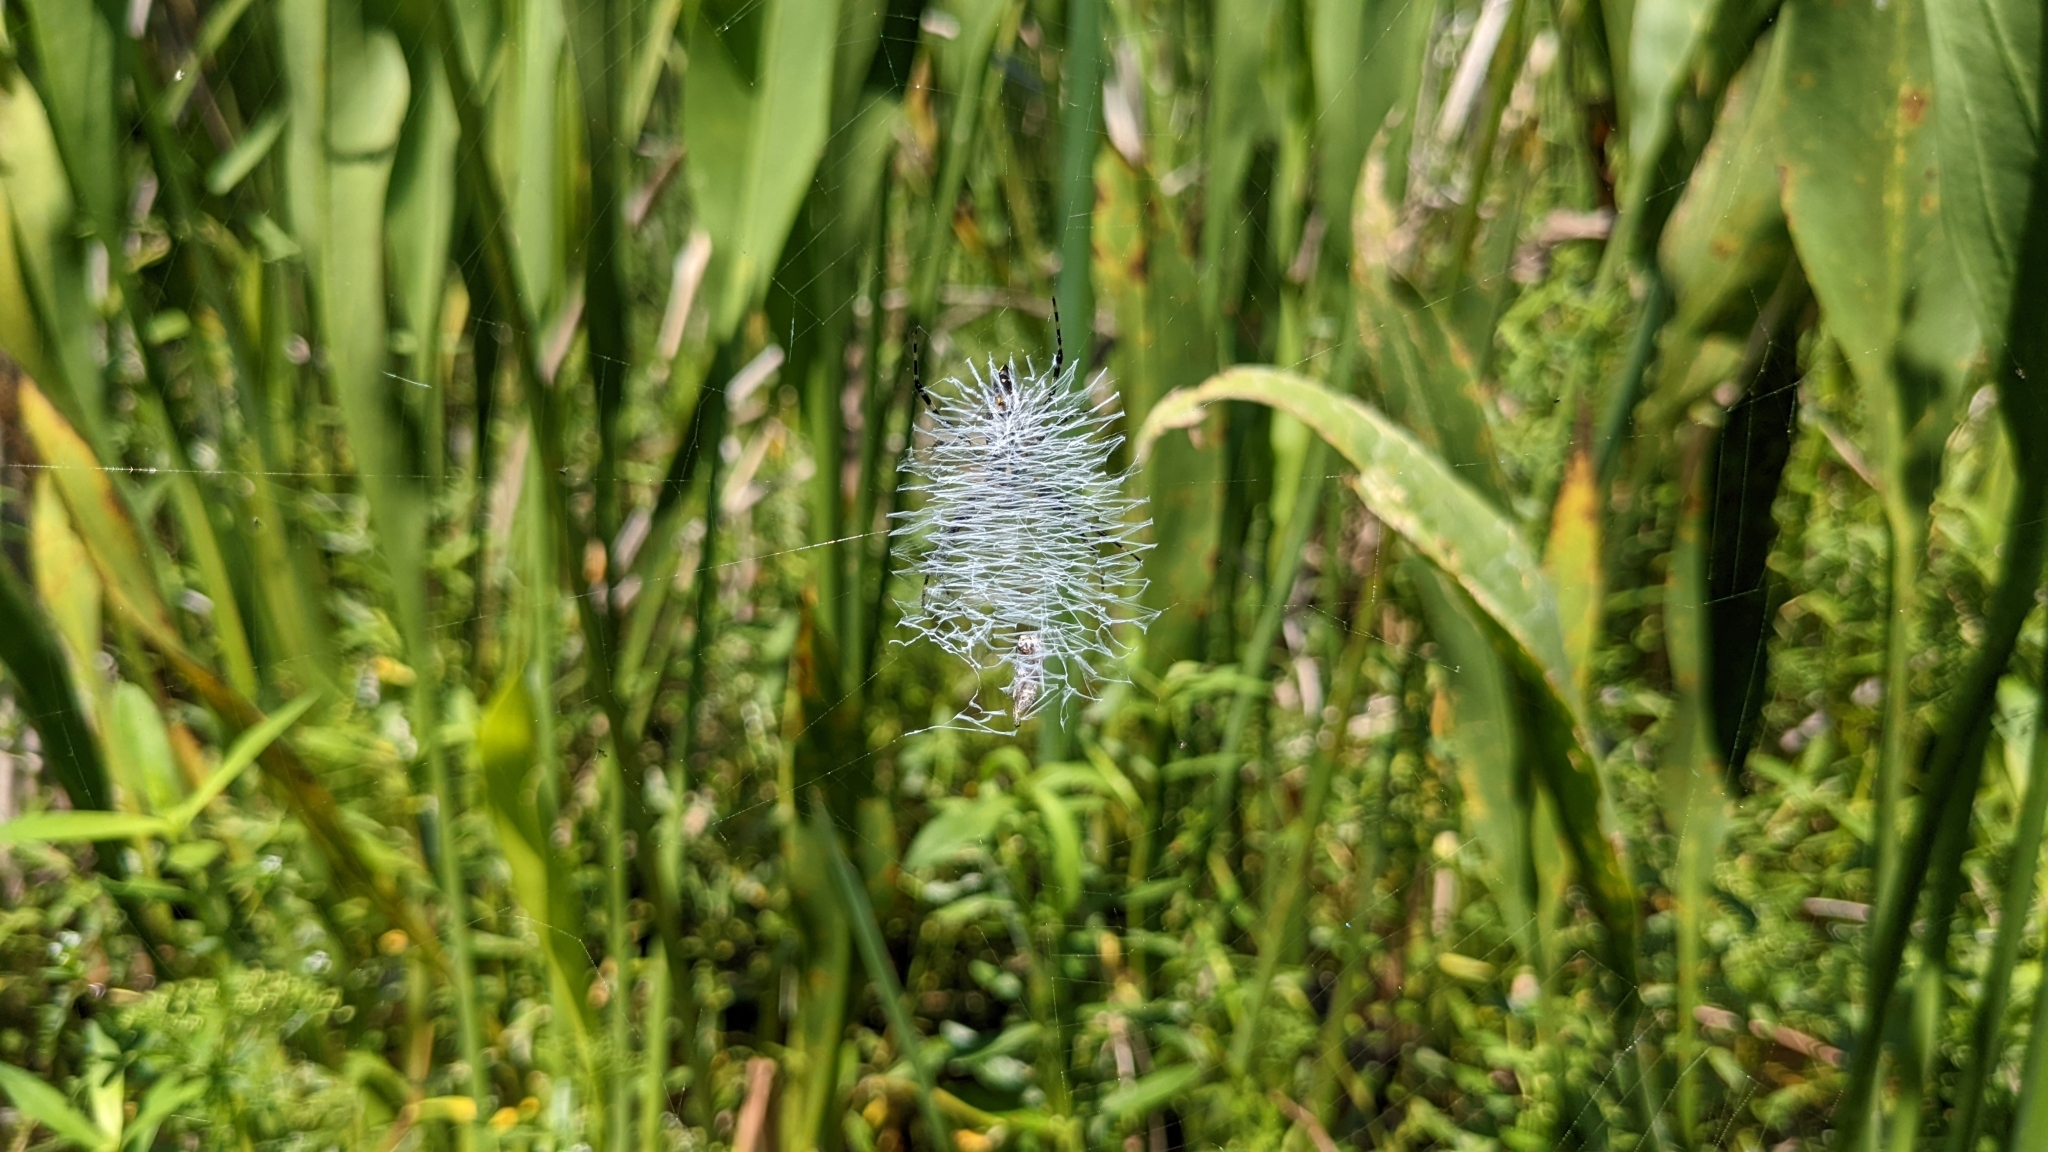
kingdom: Animalia
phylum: Arthropoda
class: Arachnida
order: Araneae
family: Araneidae
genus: Argiope
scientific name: Argiope aurantia
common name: Orb weavers
